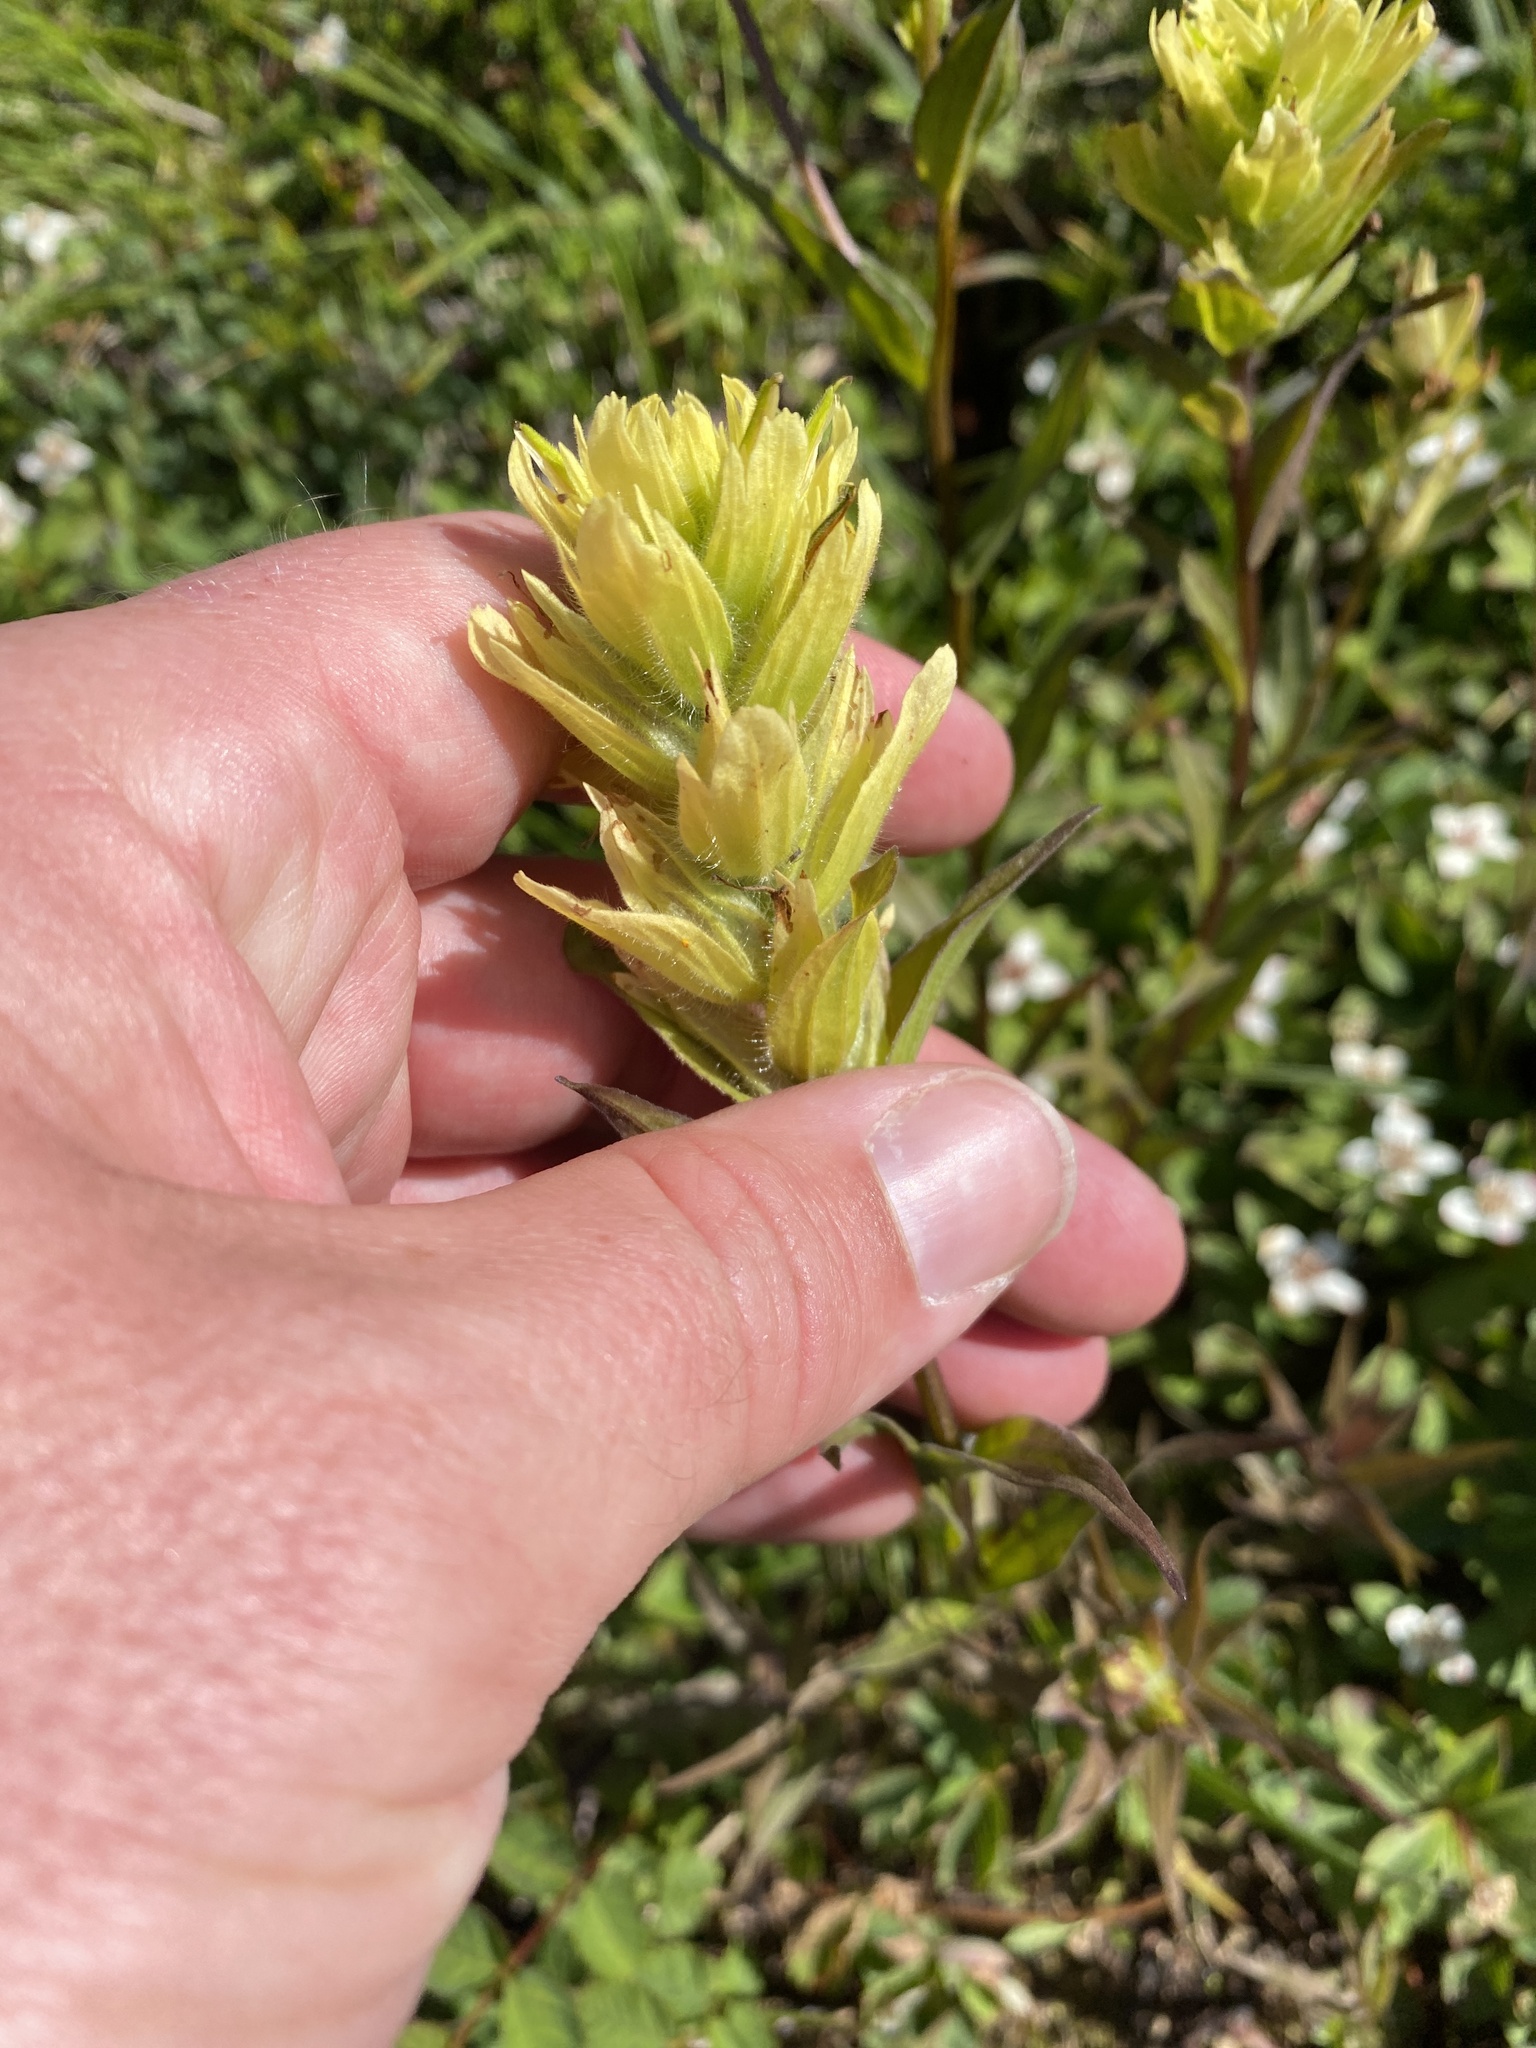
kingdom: Plantae
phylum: Tracheophyta
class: Magnoliopsida
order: Lamiales
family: Orobanchaceae
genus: Castilleja
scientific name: Castilleja unalaschcensis
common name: Unalaska paintbrush
